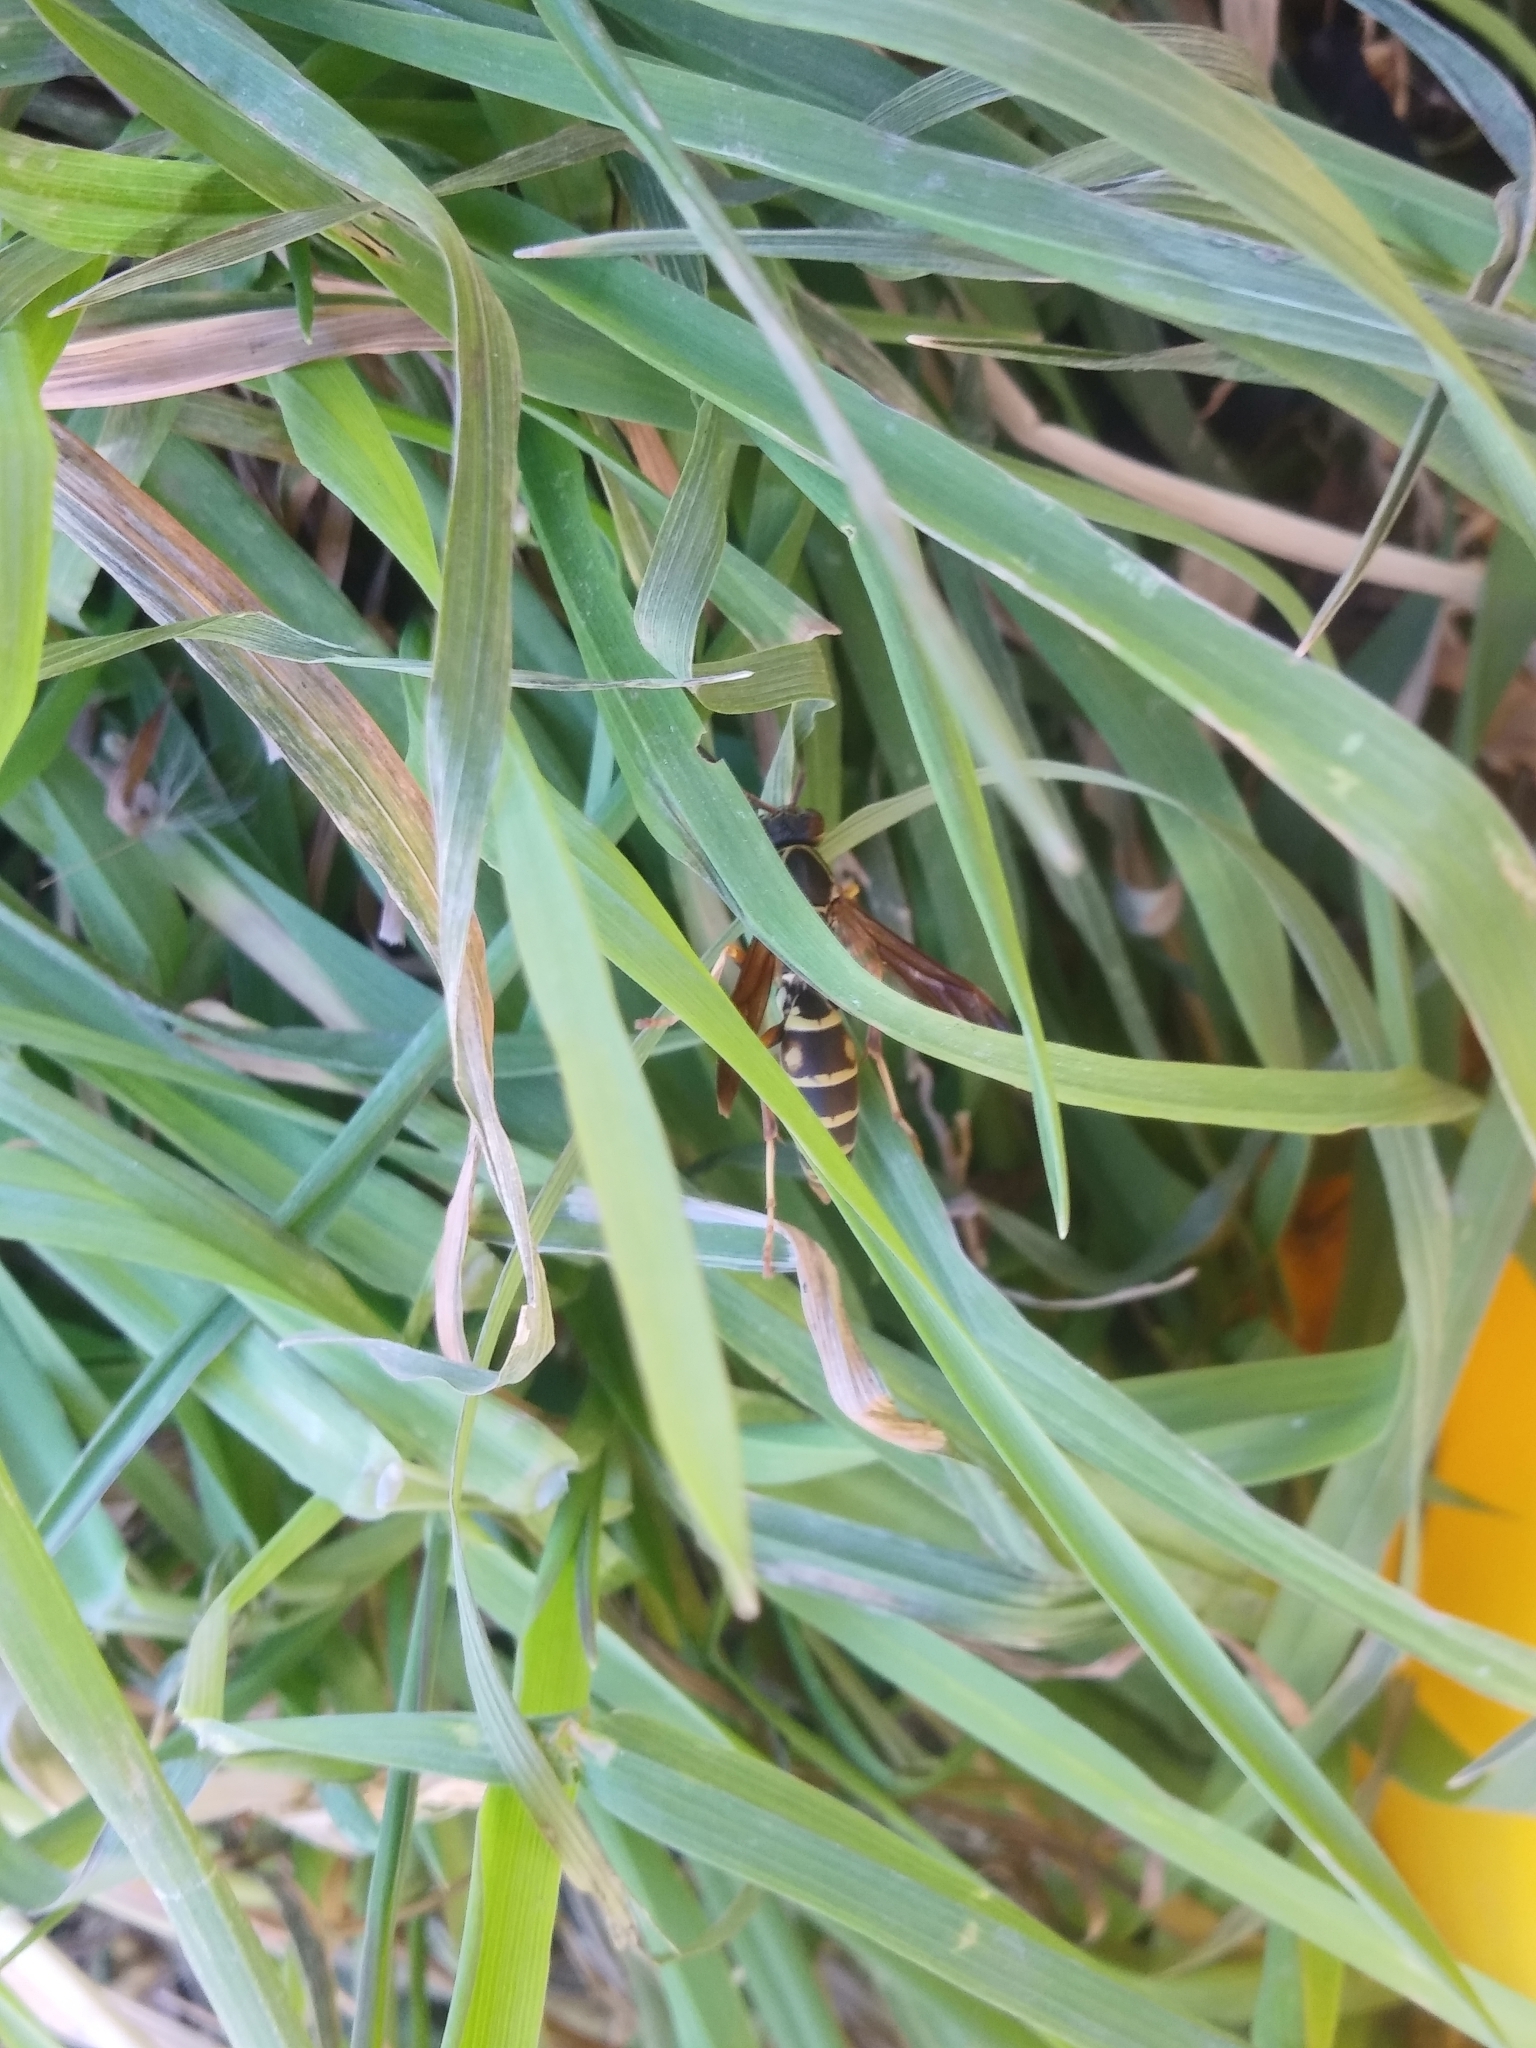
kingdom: Animalia
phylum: Arthropoda
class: Insecta
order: Hymenoptera
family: Eumenidae
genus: Polistes
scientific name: Polistes fuscatus
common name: Dark paper wasp
